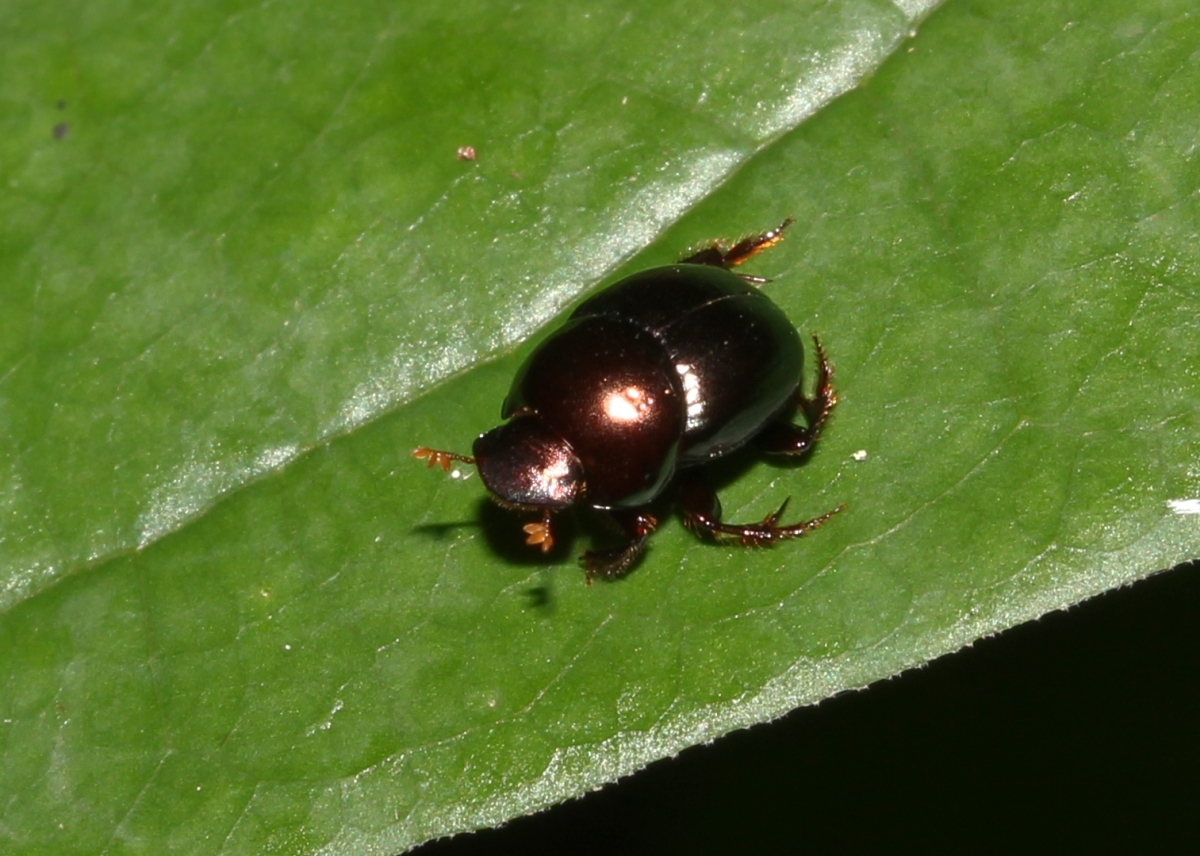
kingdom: Animalia
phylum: Arthropoda
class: Insecta
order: Coleoptera
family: Scarabaeidae
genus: Canthidium
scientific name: Canthidium
